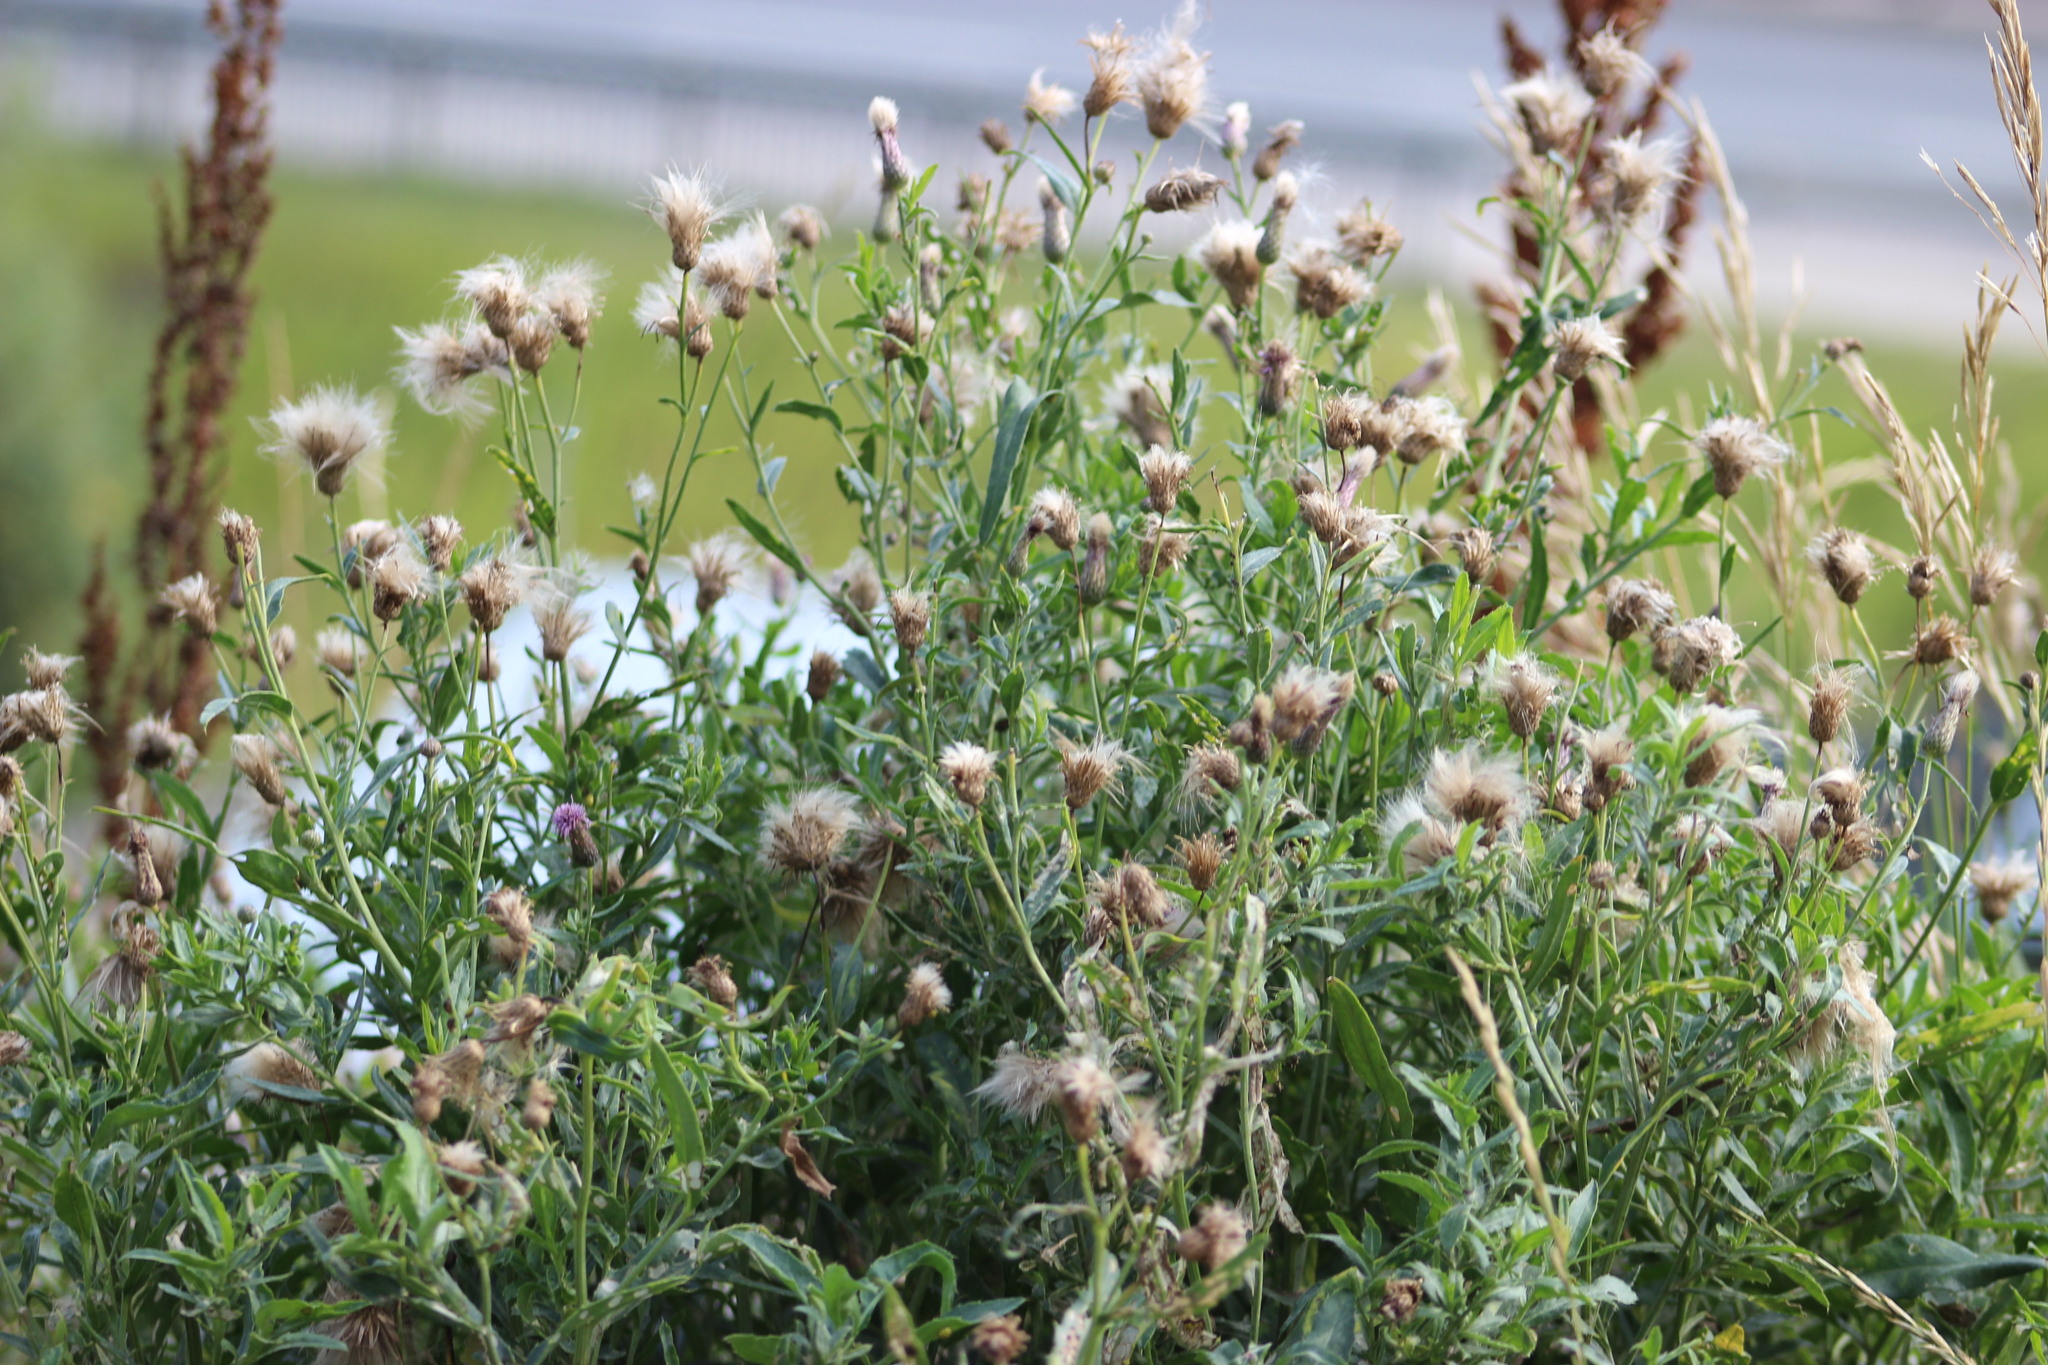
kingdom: Plantae
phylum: Tracheophyta
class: Magnoliopsida
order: Asterales
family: Asteraceae
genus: Cirsium
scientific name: Cirsium arvense
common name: Creeping thistle
